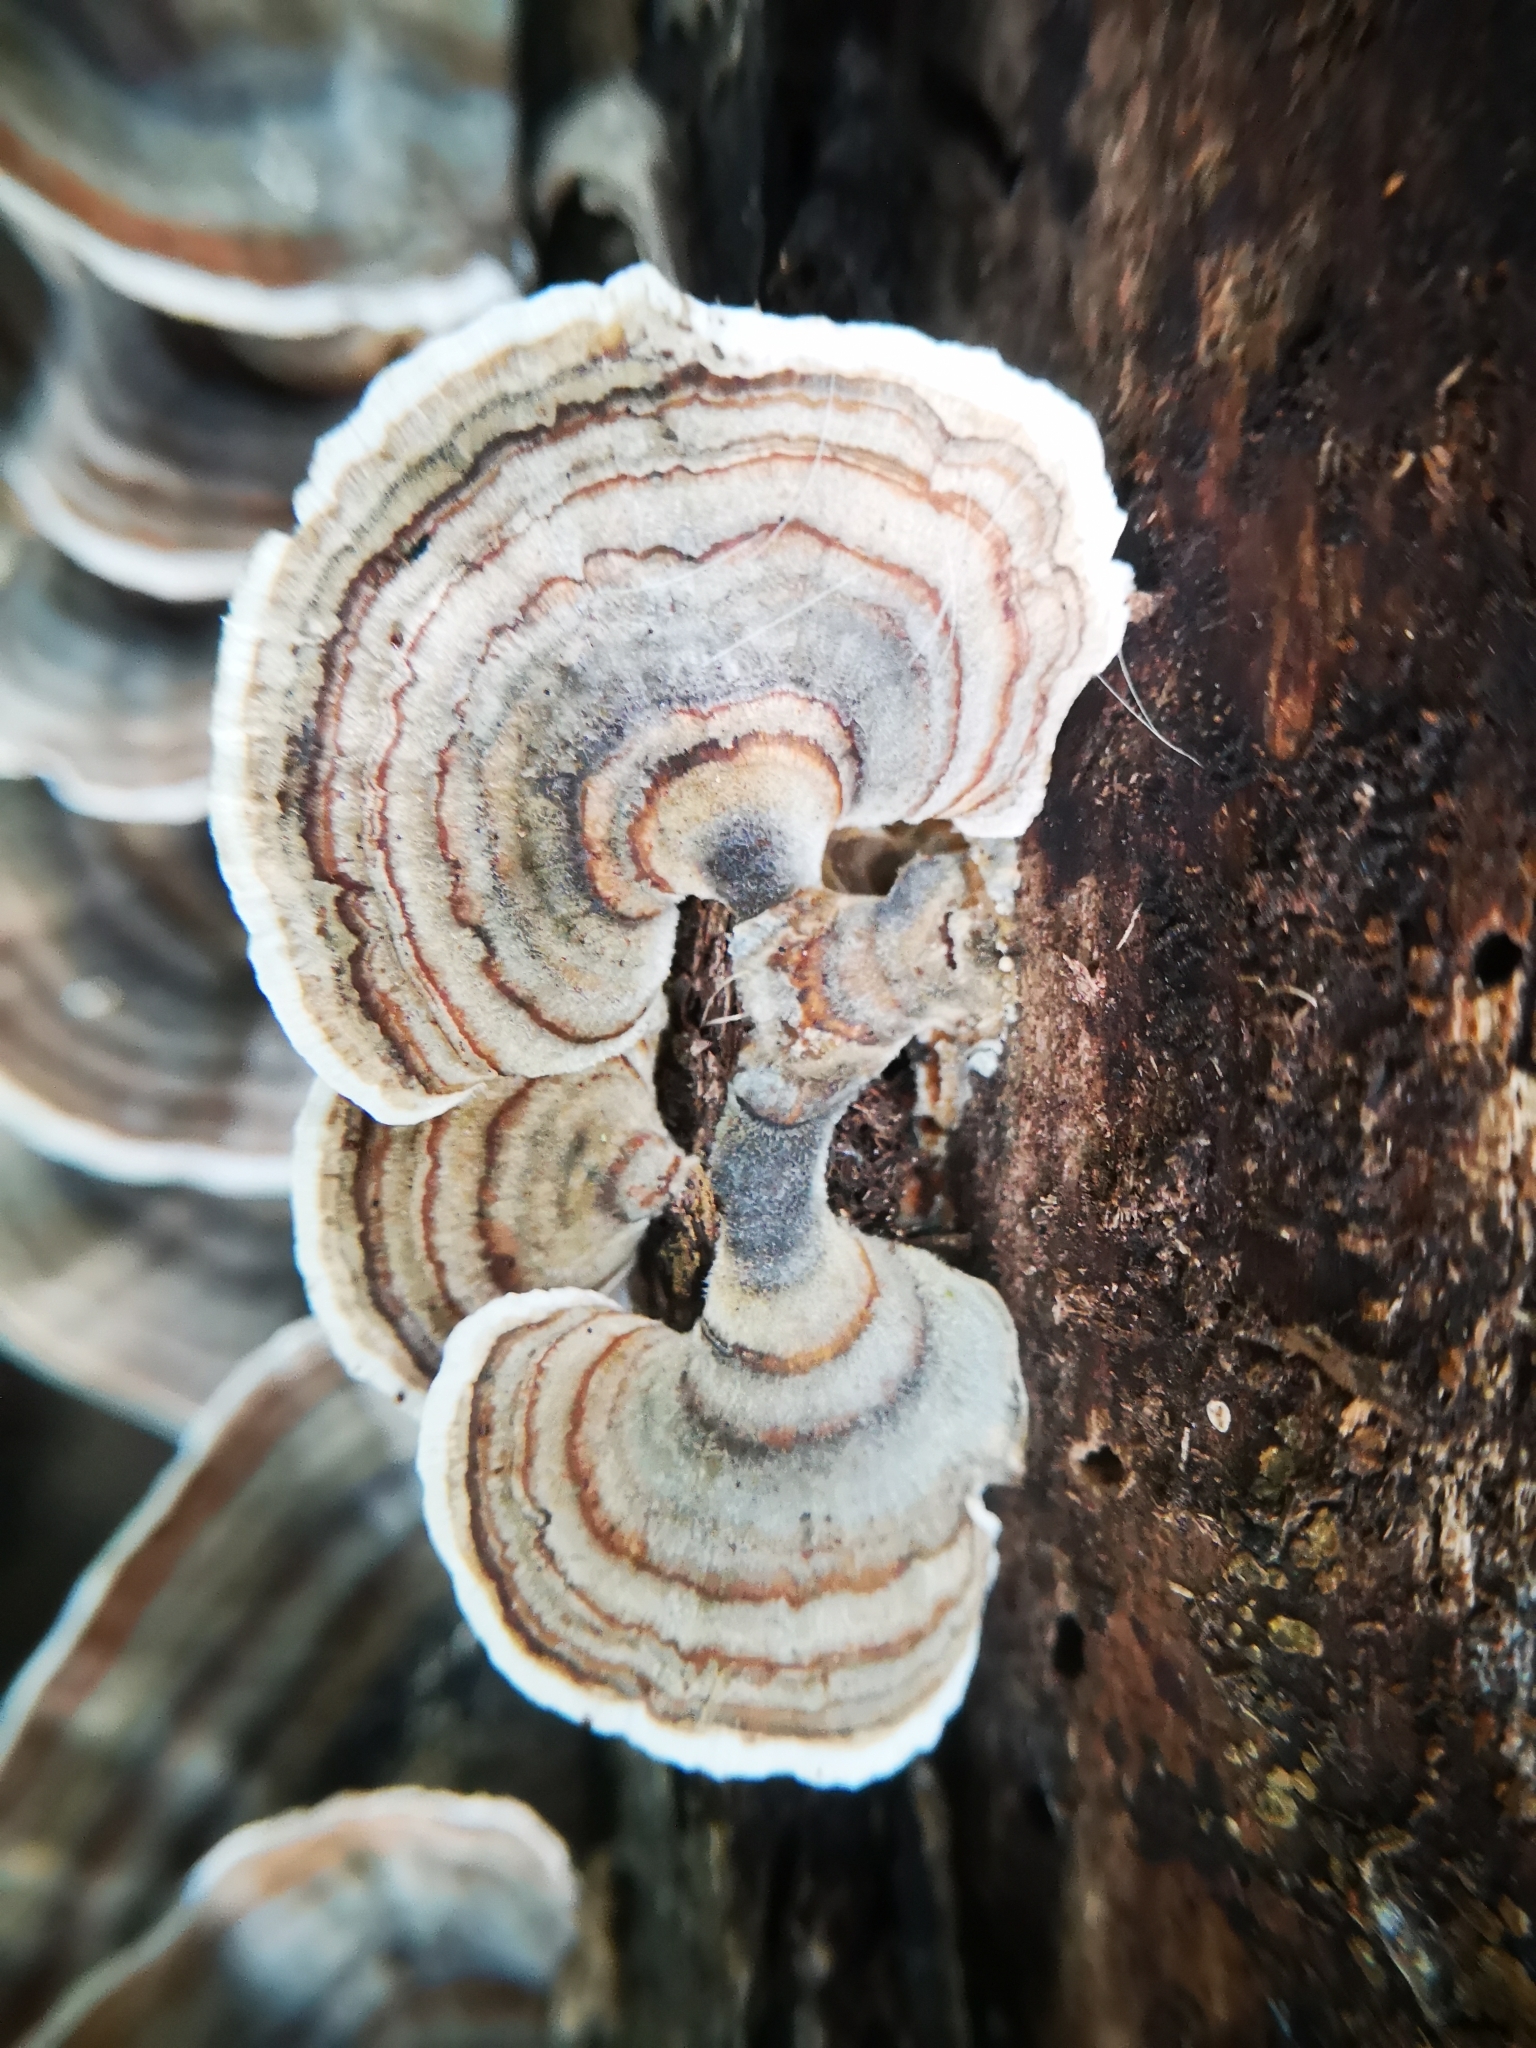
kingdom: Fungi
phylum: Basidiomycota
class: Agaricomycetes
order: Polyporales
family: Polyporaceae
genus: Trametes
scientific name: Trametes versicolor
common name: Turkeytail
